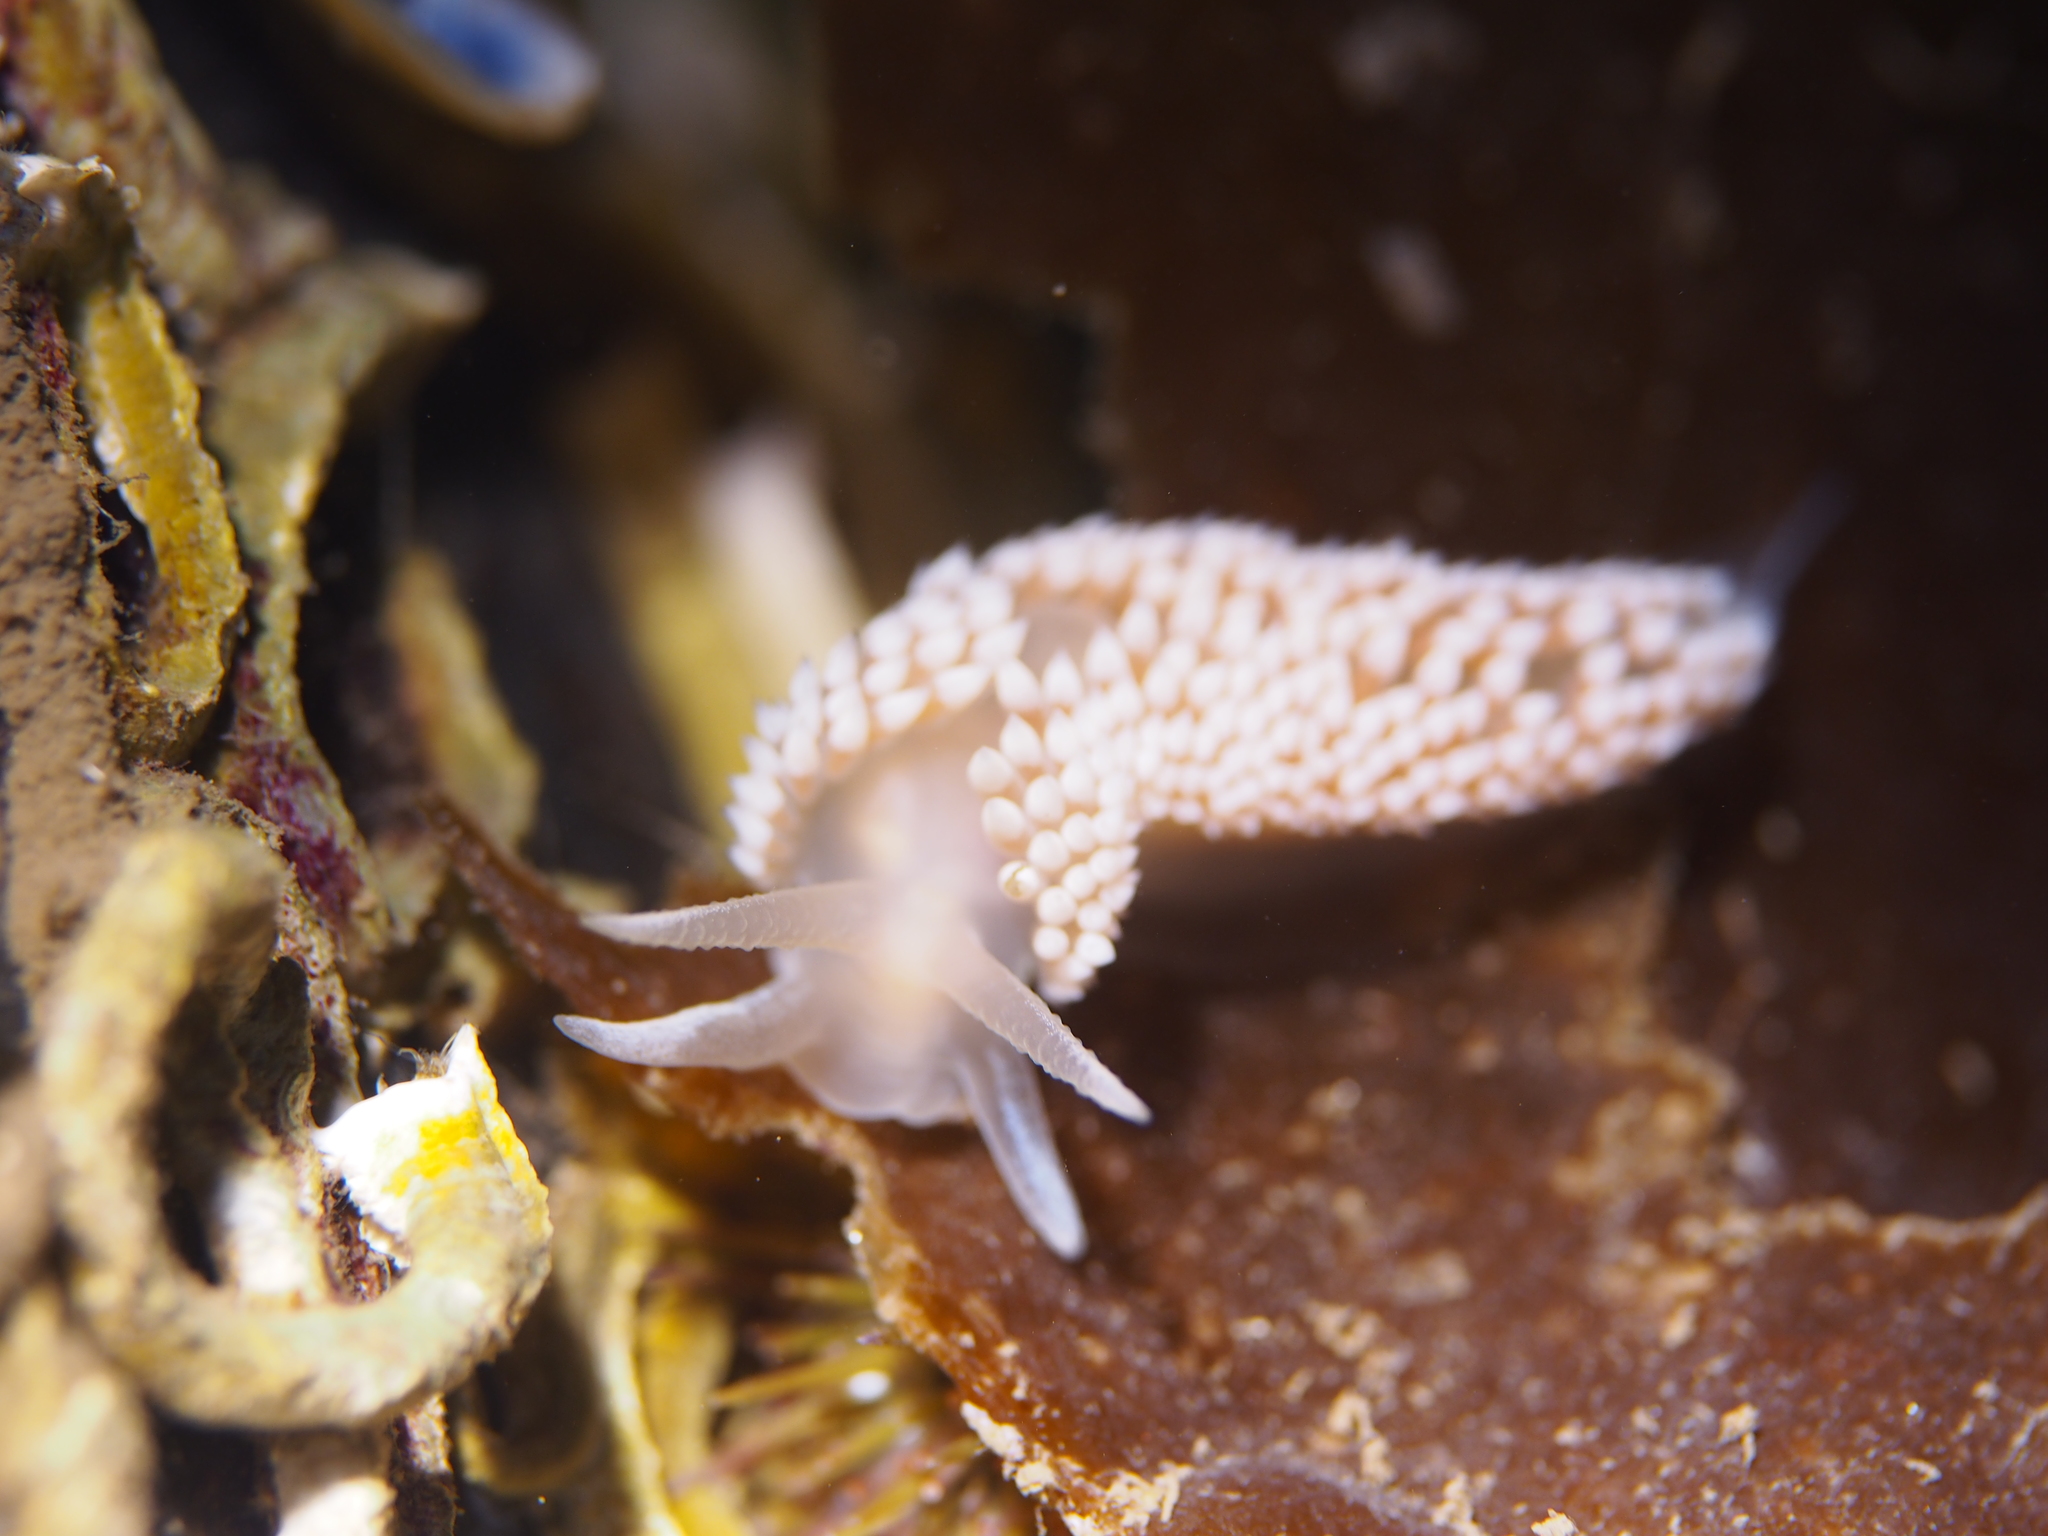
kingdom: Animalia
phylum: Mollusca
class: Gastropoda
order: Nudibranchia
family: Coryphellidae
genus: Coryphella
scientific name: Coryphella verrucosa
